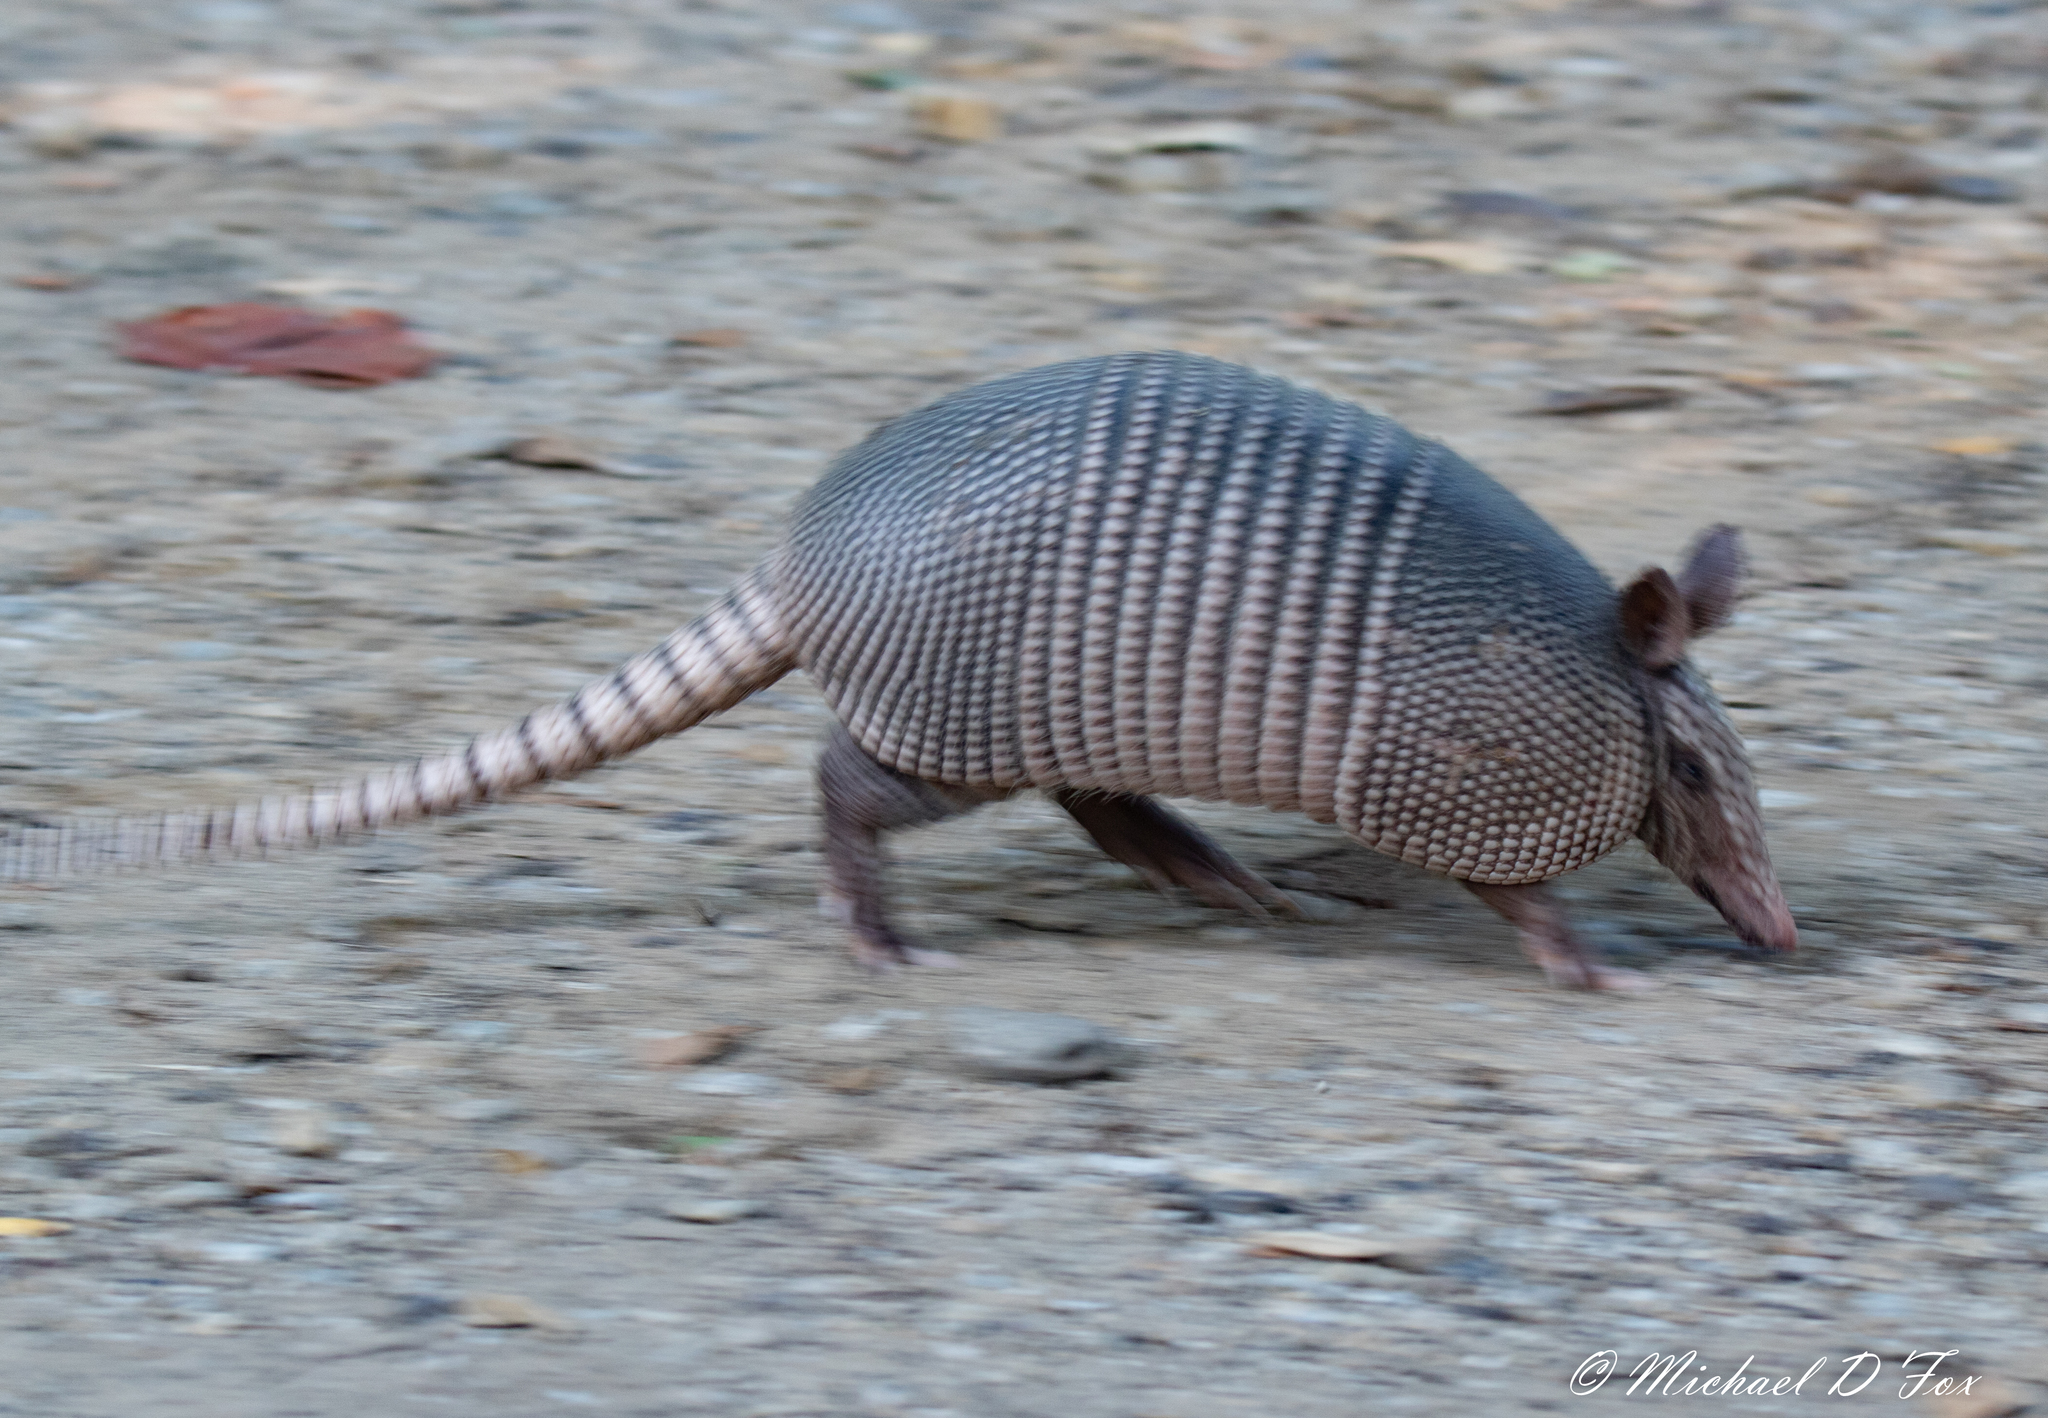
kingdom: Animalia
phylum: Chordata
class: Mammalia
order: Cingulata
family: Dasypodidae
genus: Dasypus
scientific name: Dasypus novemcinctus
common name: Nine-banded armadillo
